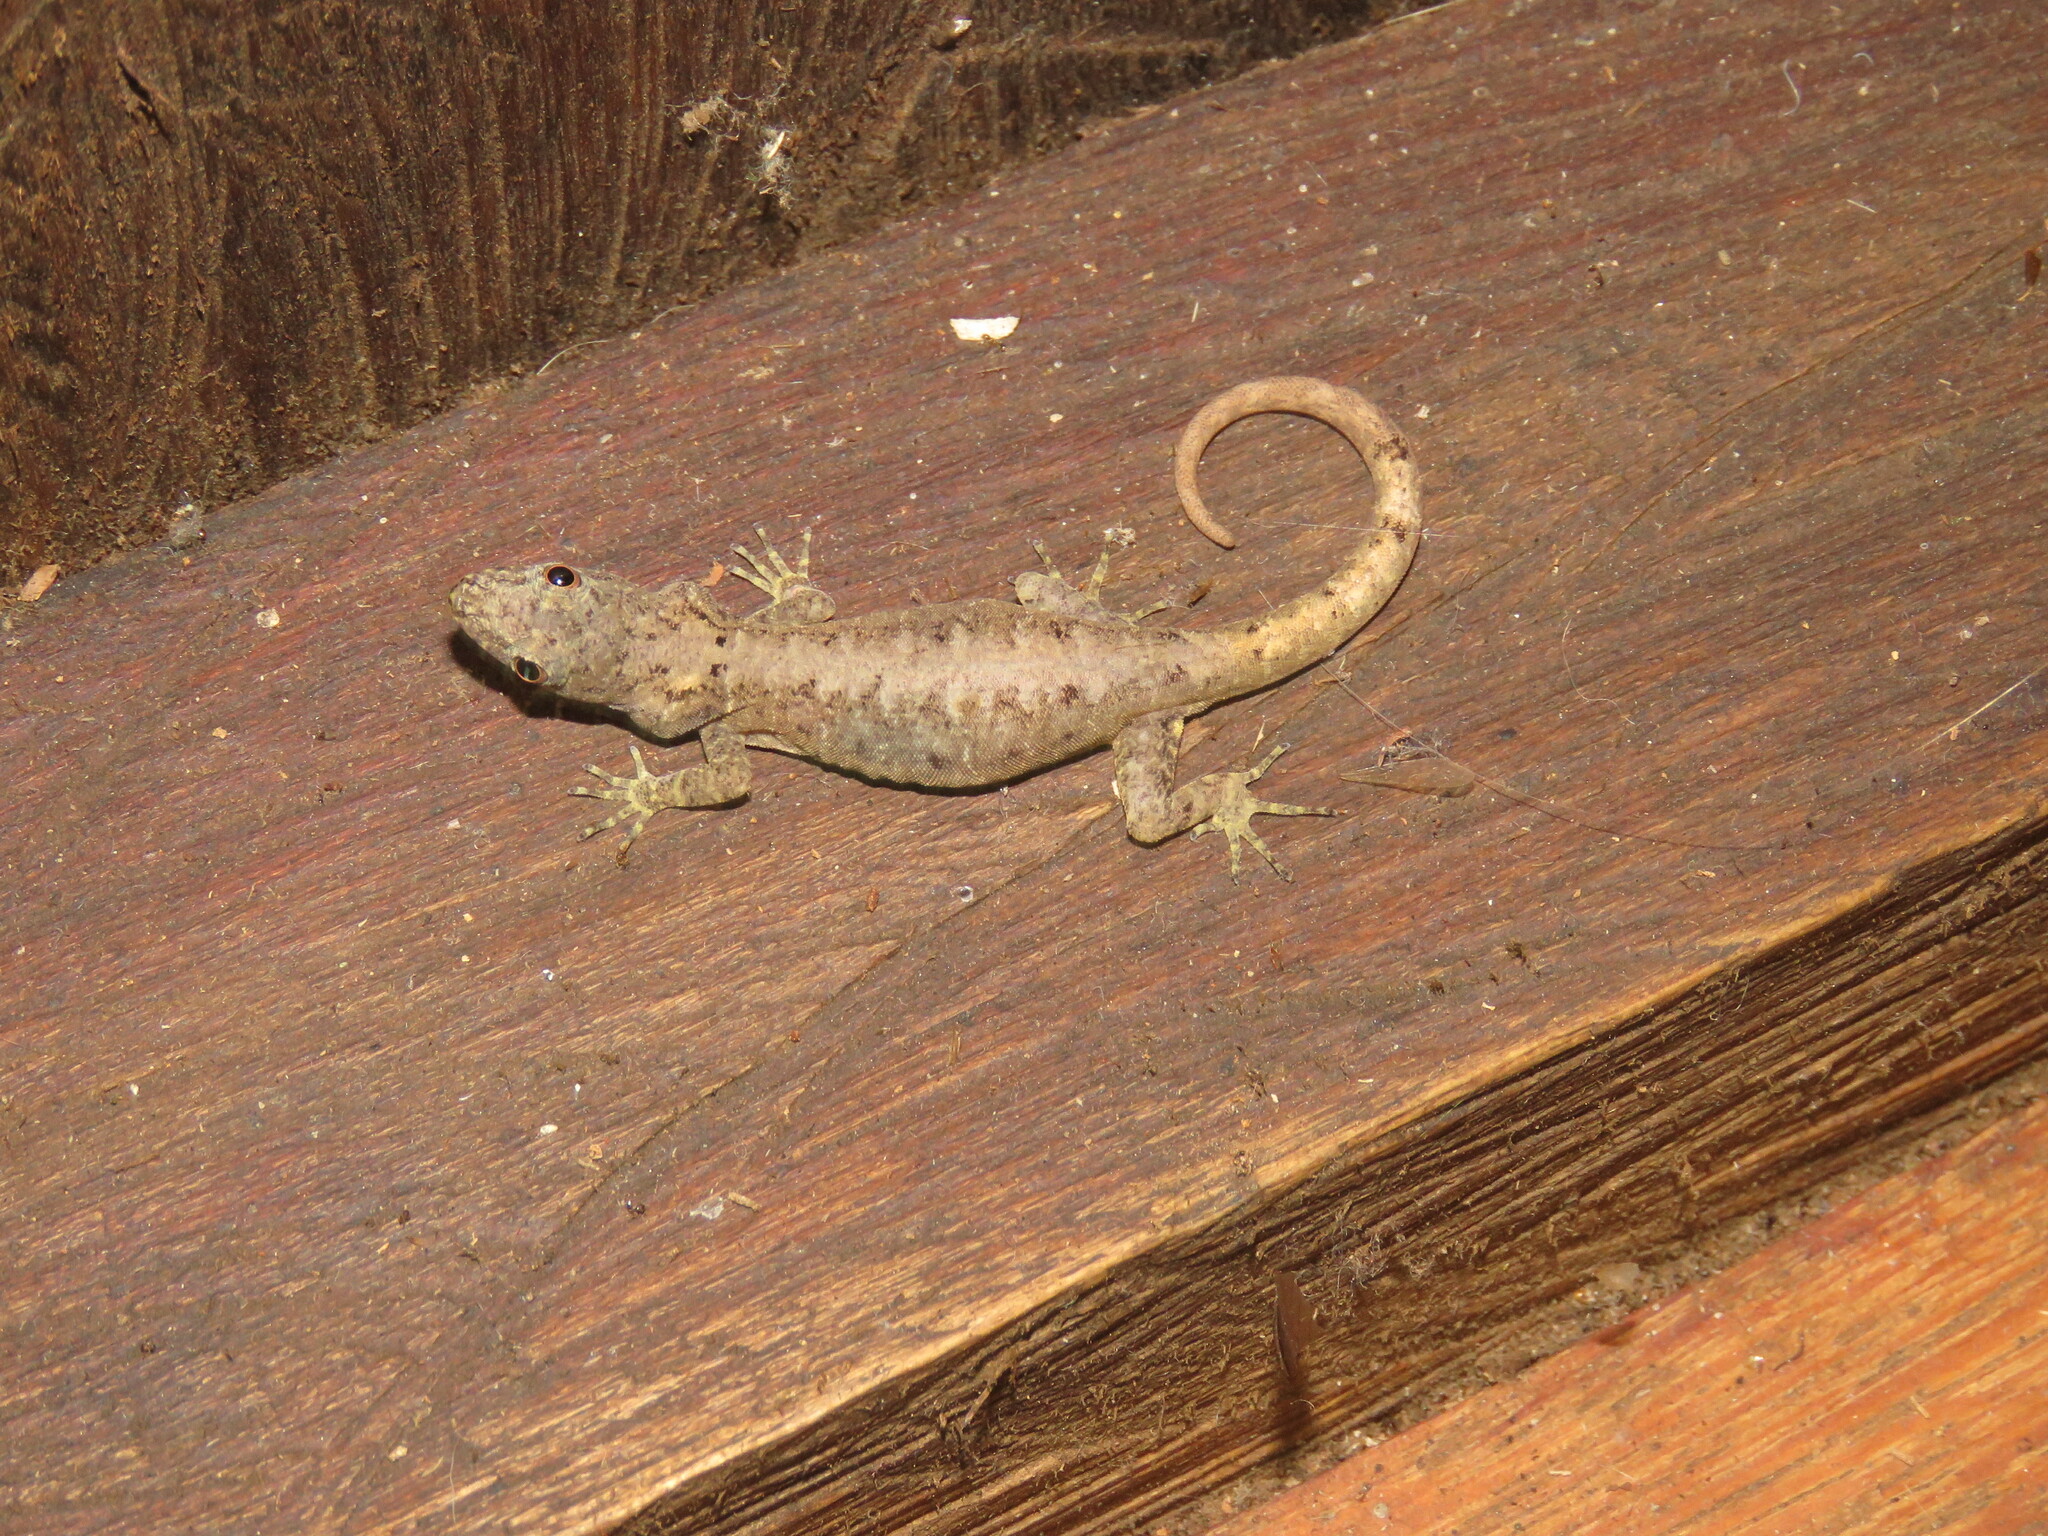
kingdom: Animalia
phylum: Chordata
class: Squamata
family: Sphaerodactylidae
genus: Gonatodes
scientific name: Gonatodes humeralis
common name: South american clawed gecko
